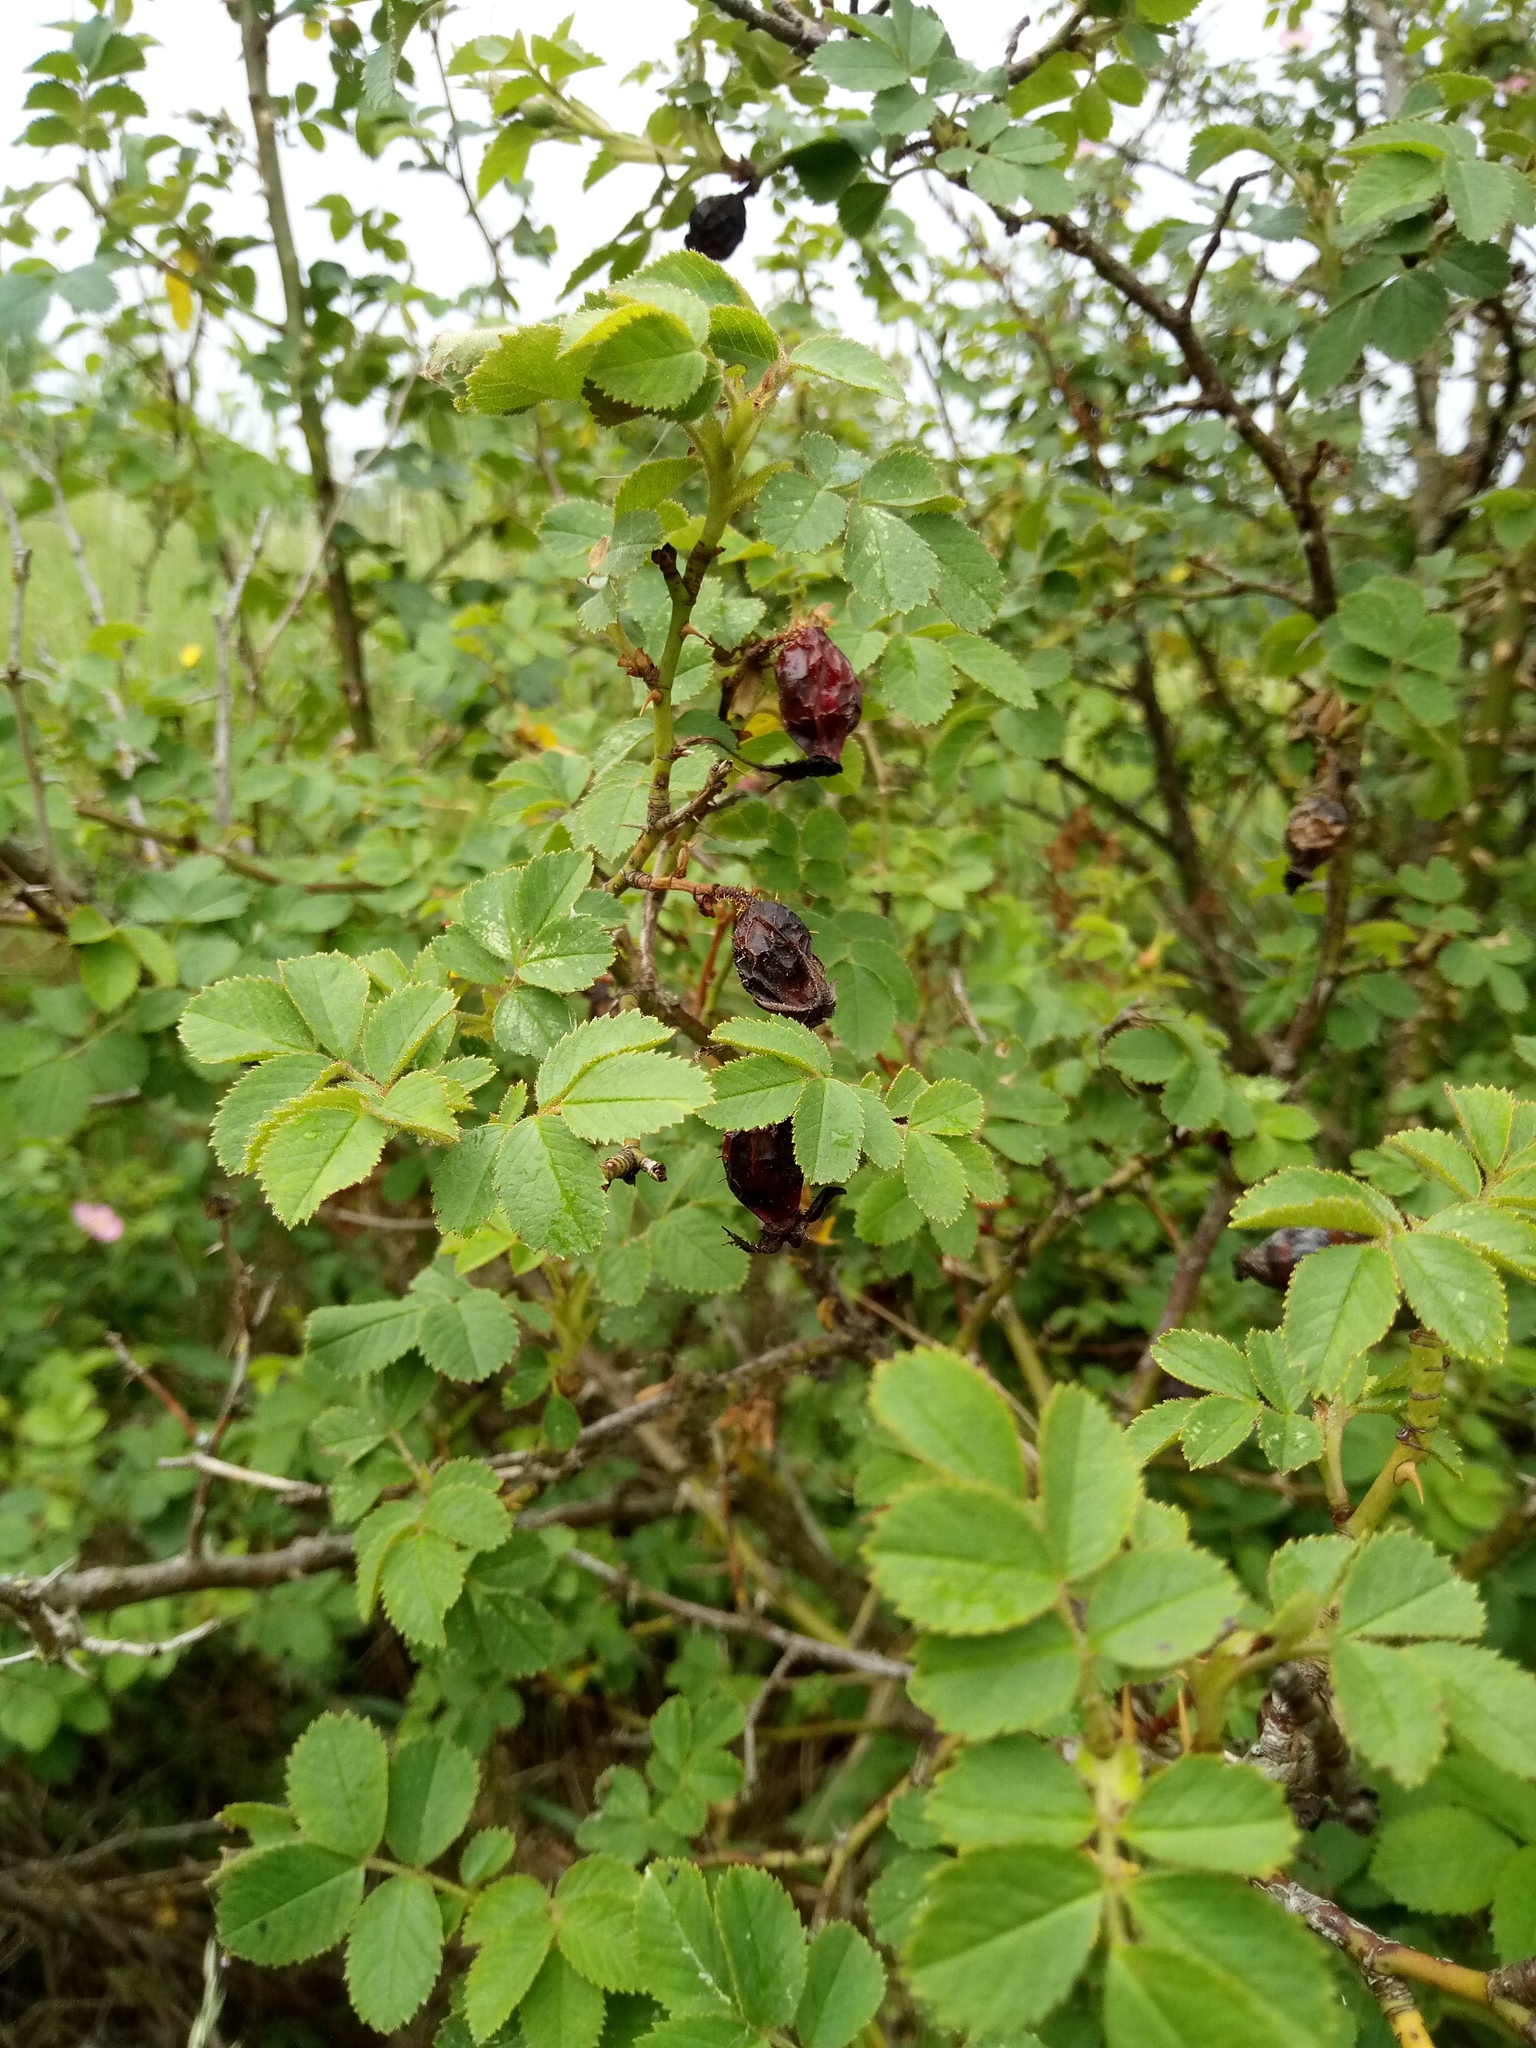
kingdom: Plantae
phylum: Tracheophyta
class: Magnoliopsida
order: Rosales
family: Rosaceae
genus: Rosa
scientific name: Rosa rubiginosa
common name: Sweet-briar
